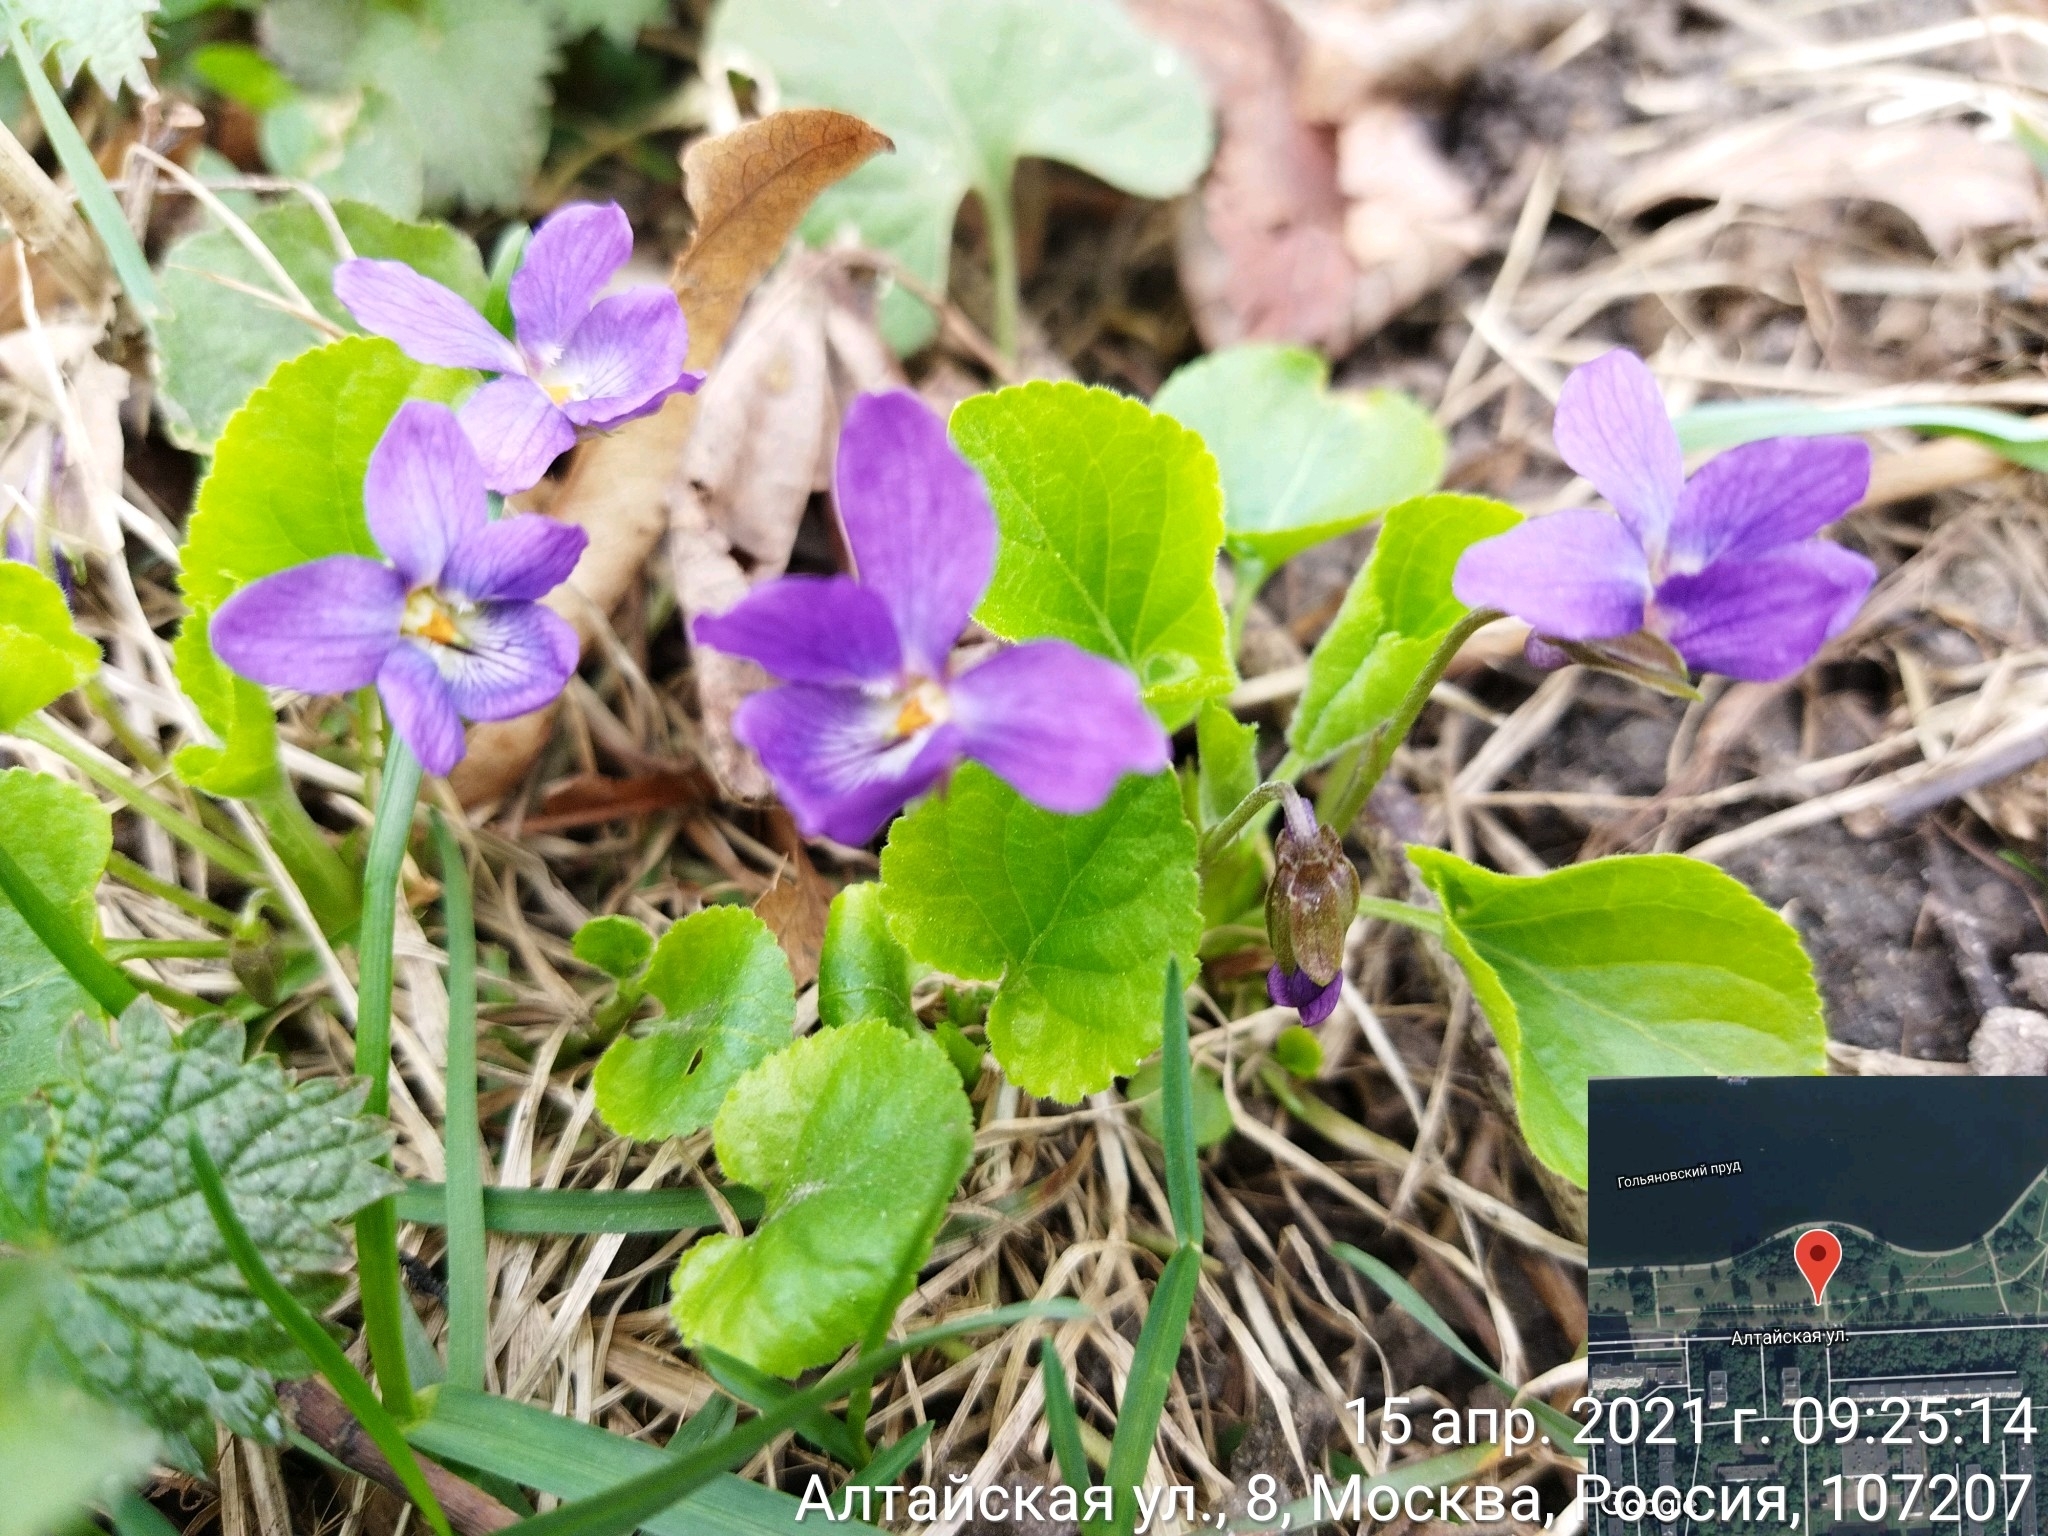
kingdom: Plantae
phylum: Tracheophyta
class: Magnoliopsida
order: Malpighiales
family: Violaceae
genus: Viola
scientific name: Viola odorata
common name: Sweet violet
